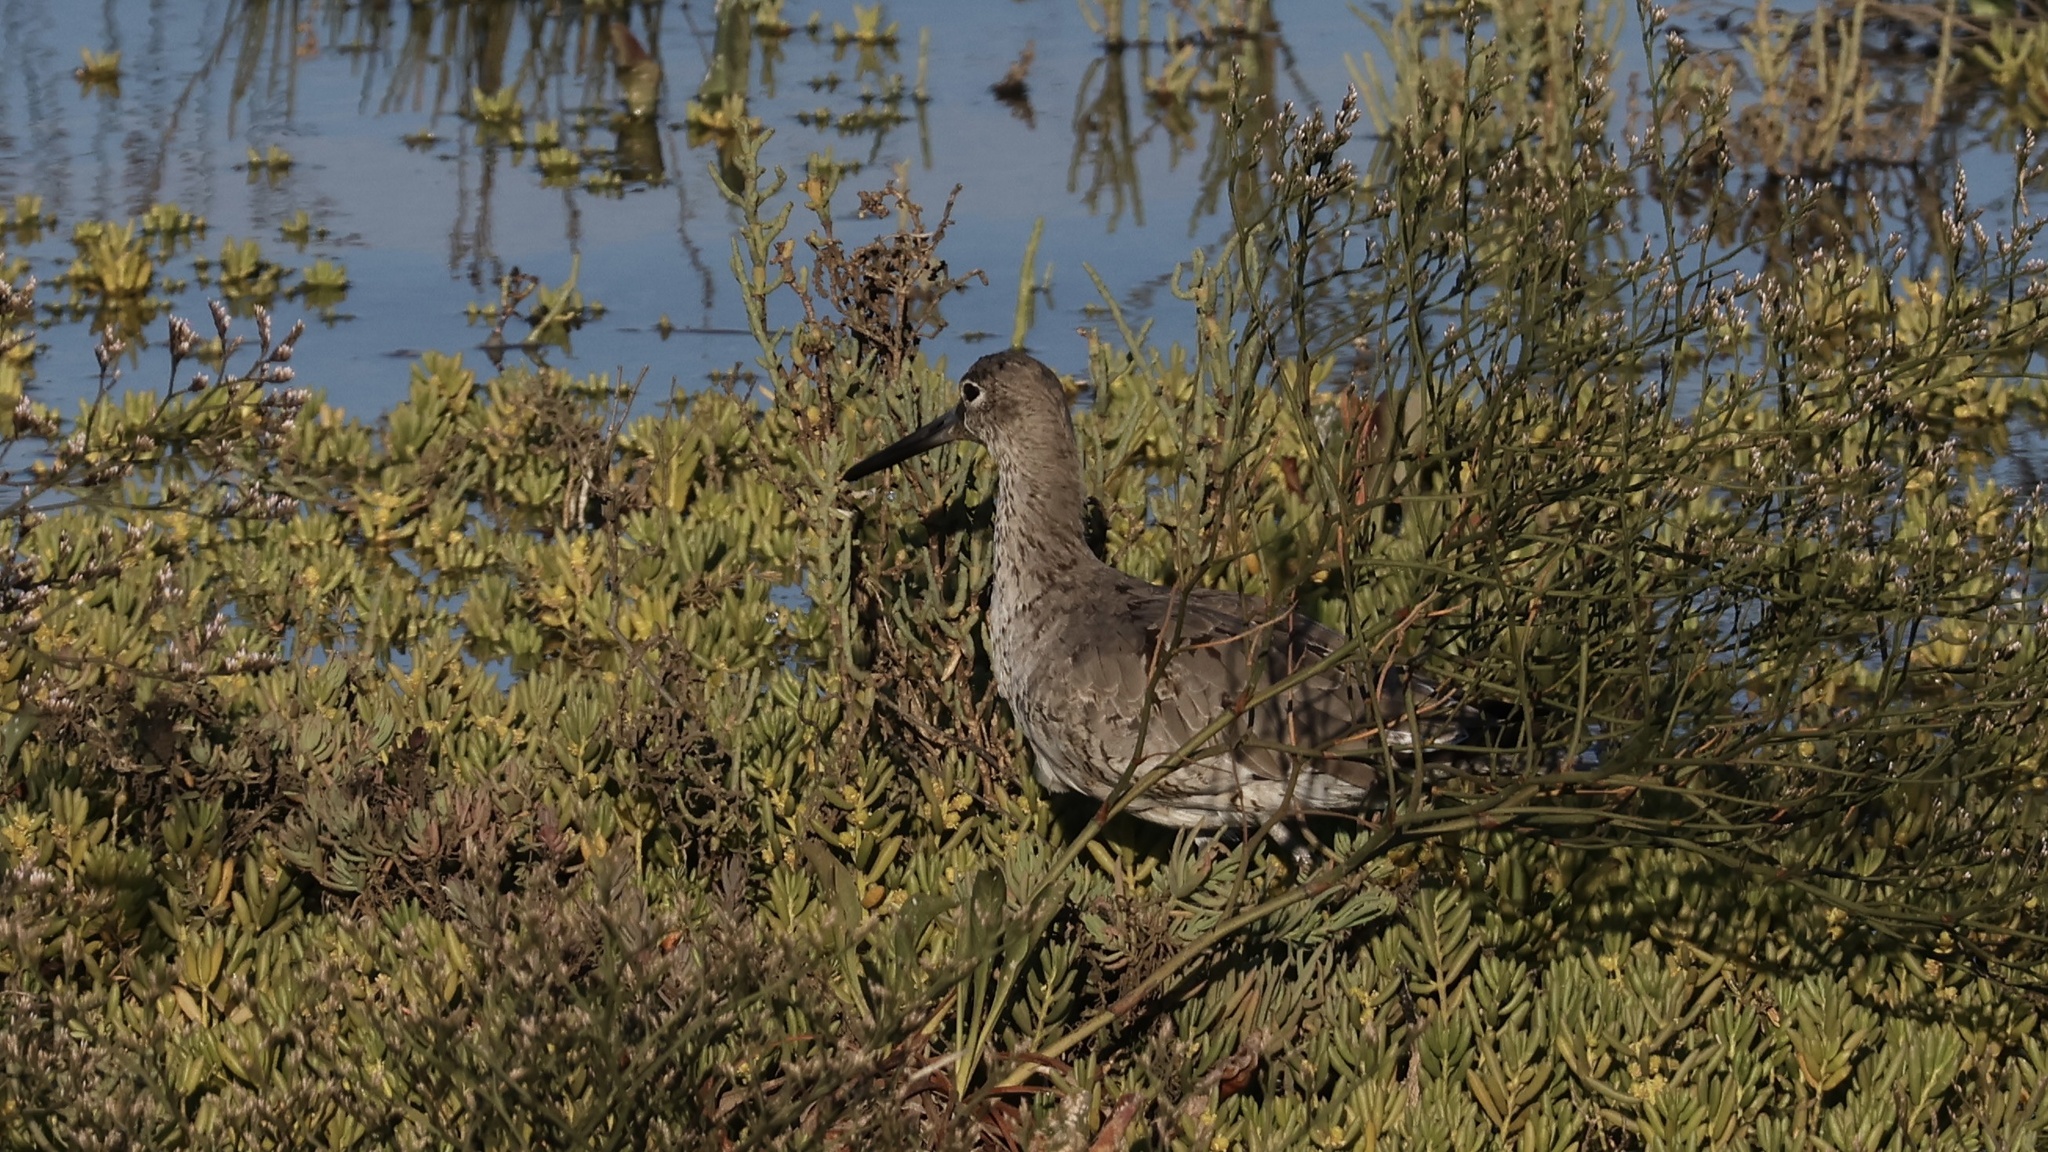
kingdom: Animalia
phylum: Chordata
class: Aves
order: Charadriiformes
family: Scolopacidae
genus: Tringa
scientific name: Tringa semipalmata
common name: Willet
